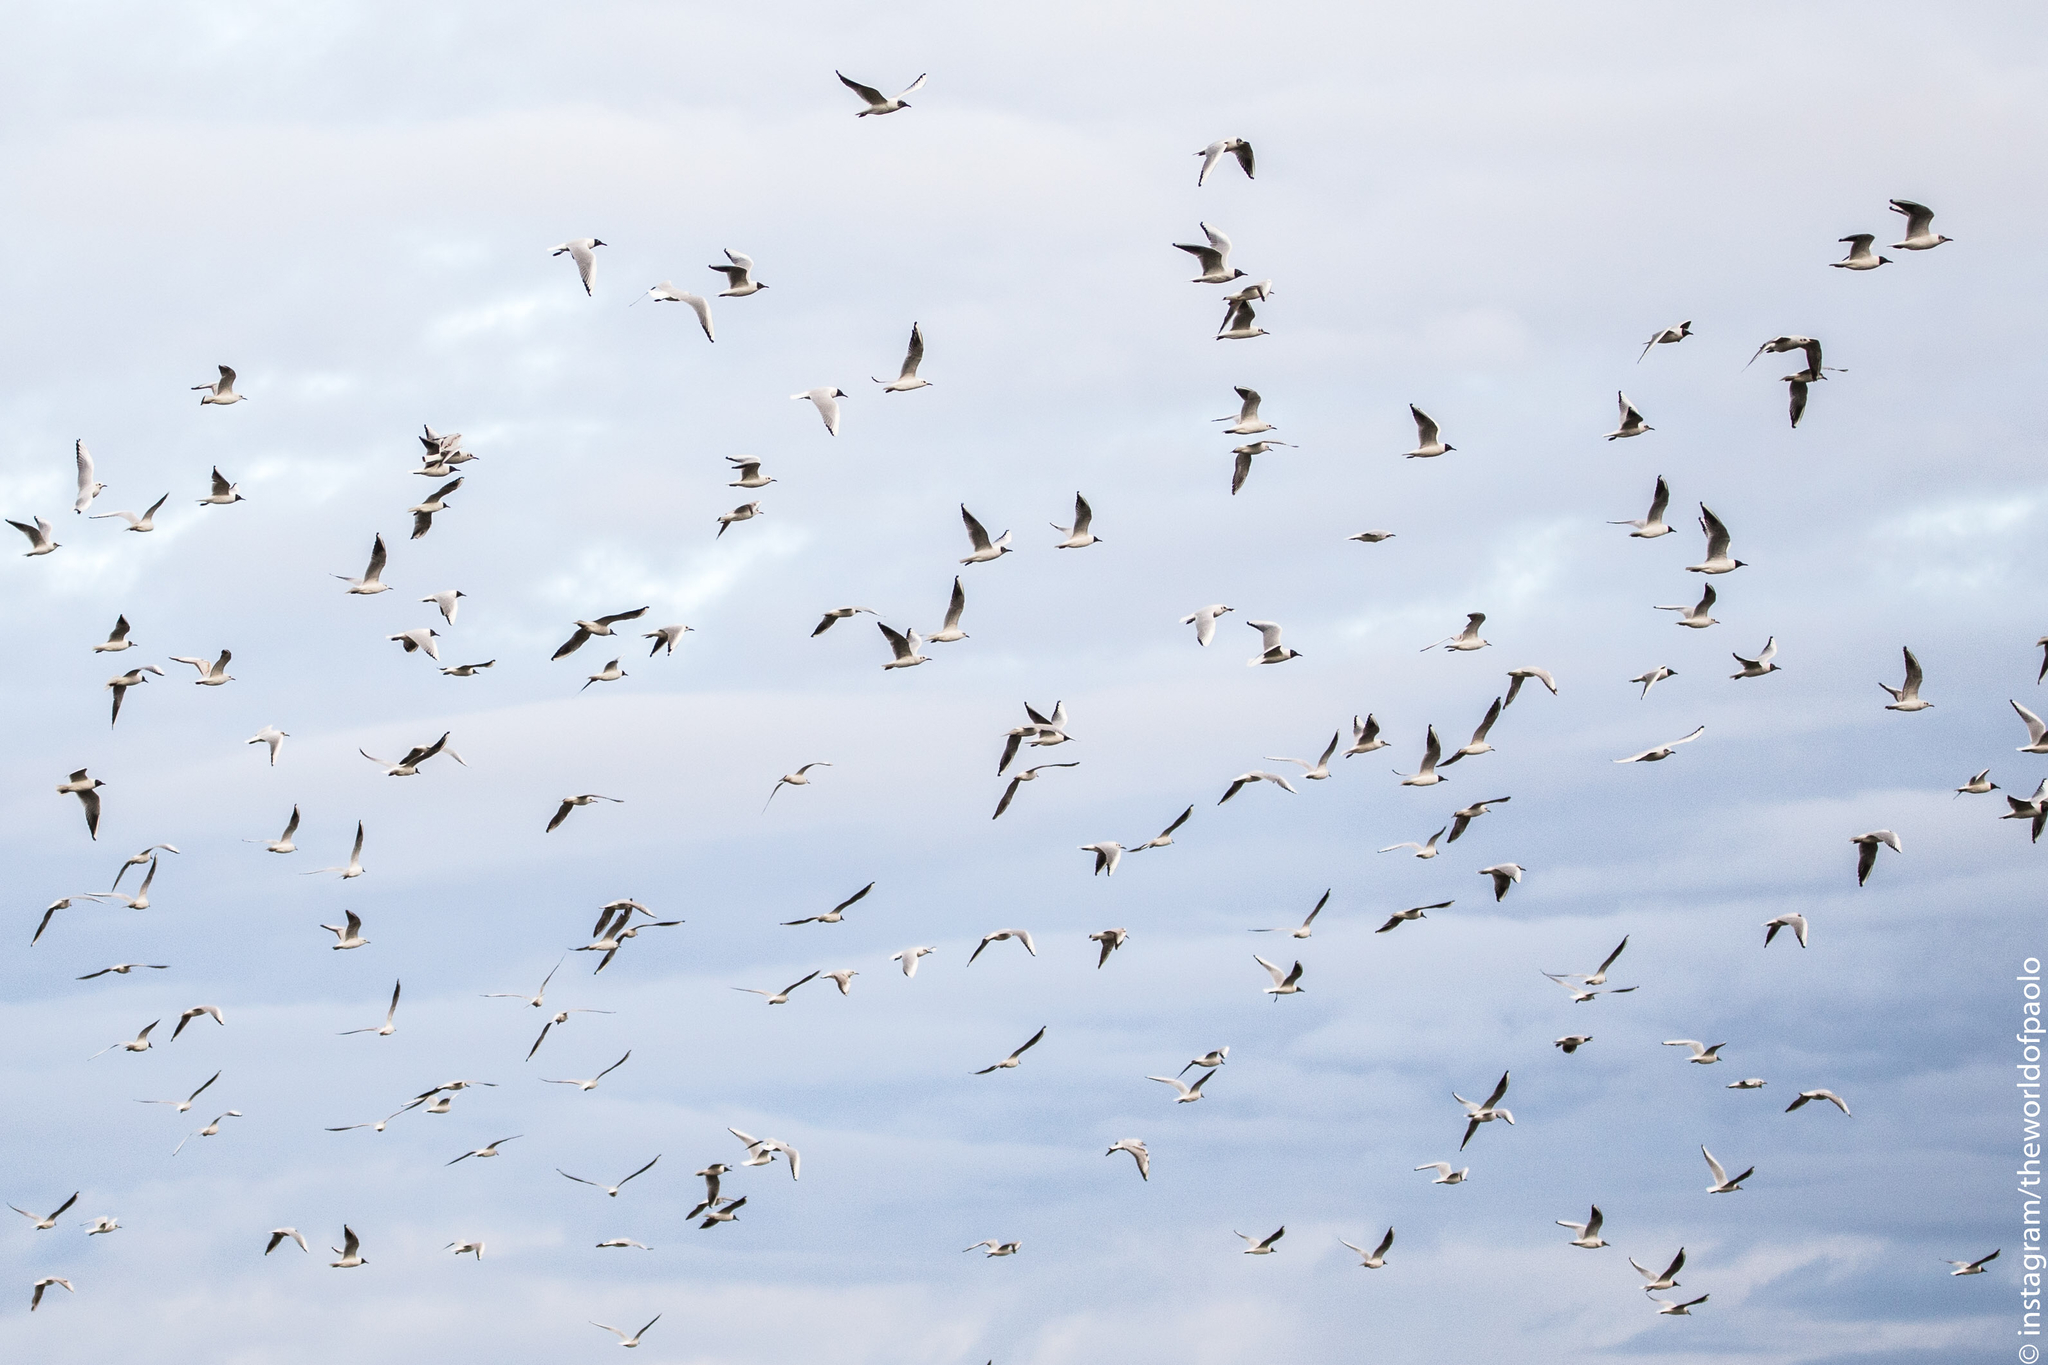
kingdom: Animalia
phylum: Chordata
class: Aves
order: Charadriiformes
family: Laridae
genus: Chroicocephalus
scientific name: Chroicocephalus ridibundus
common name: Black-headed gull
